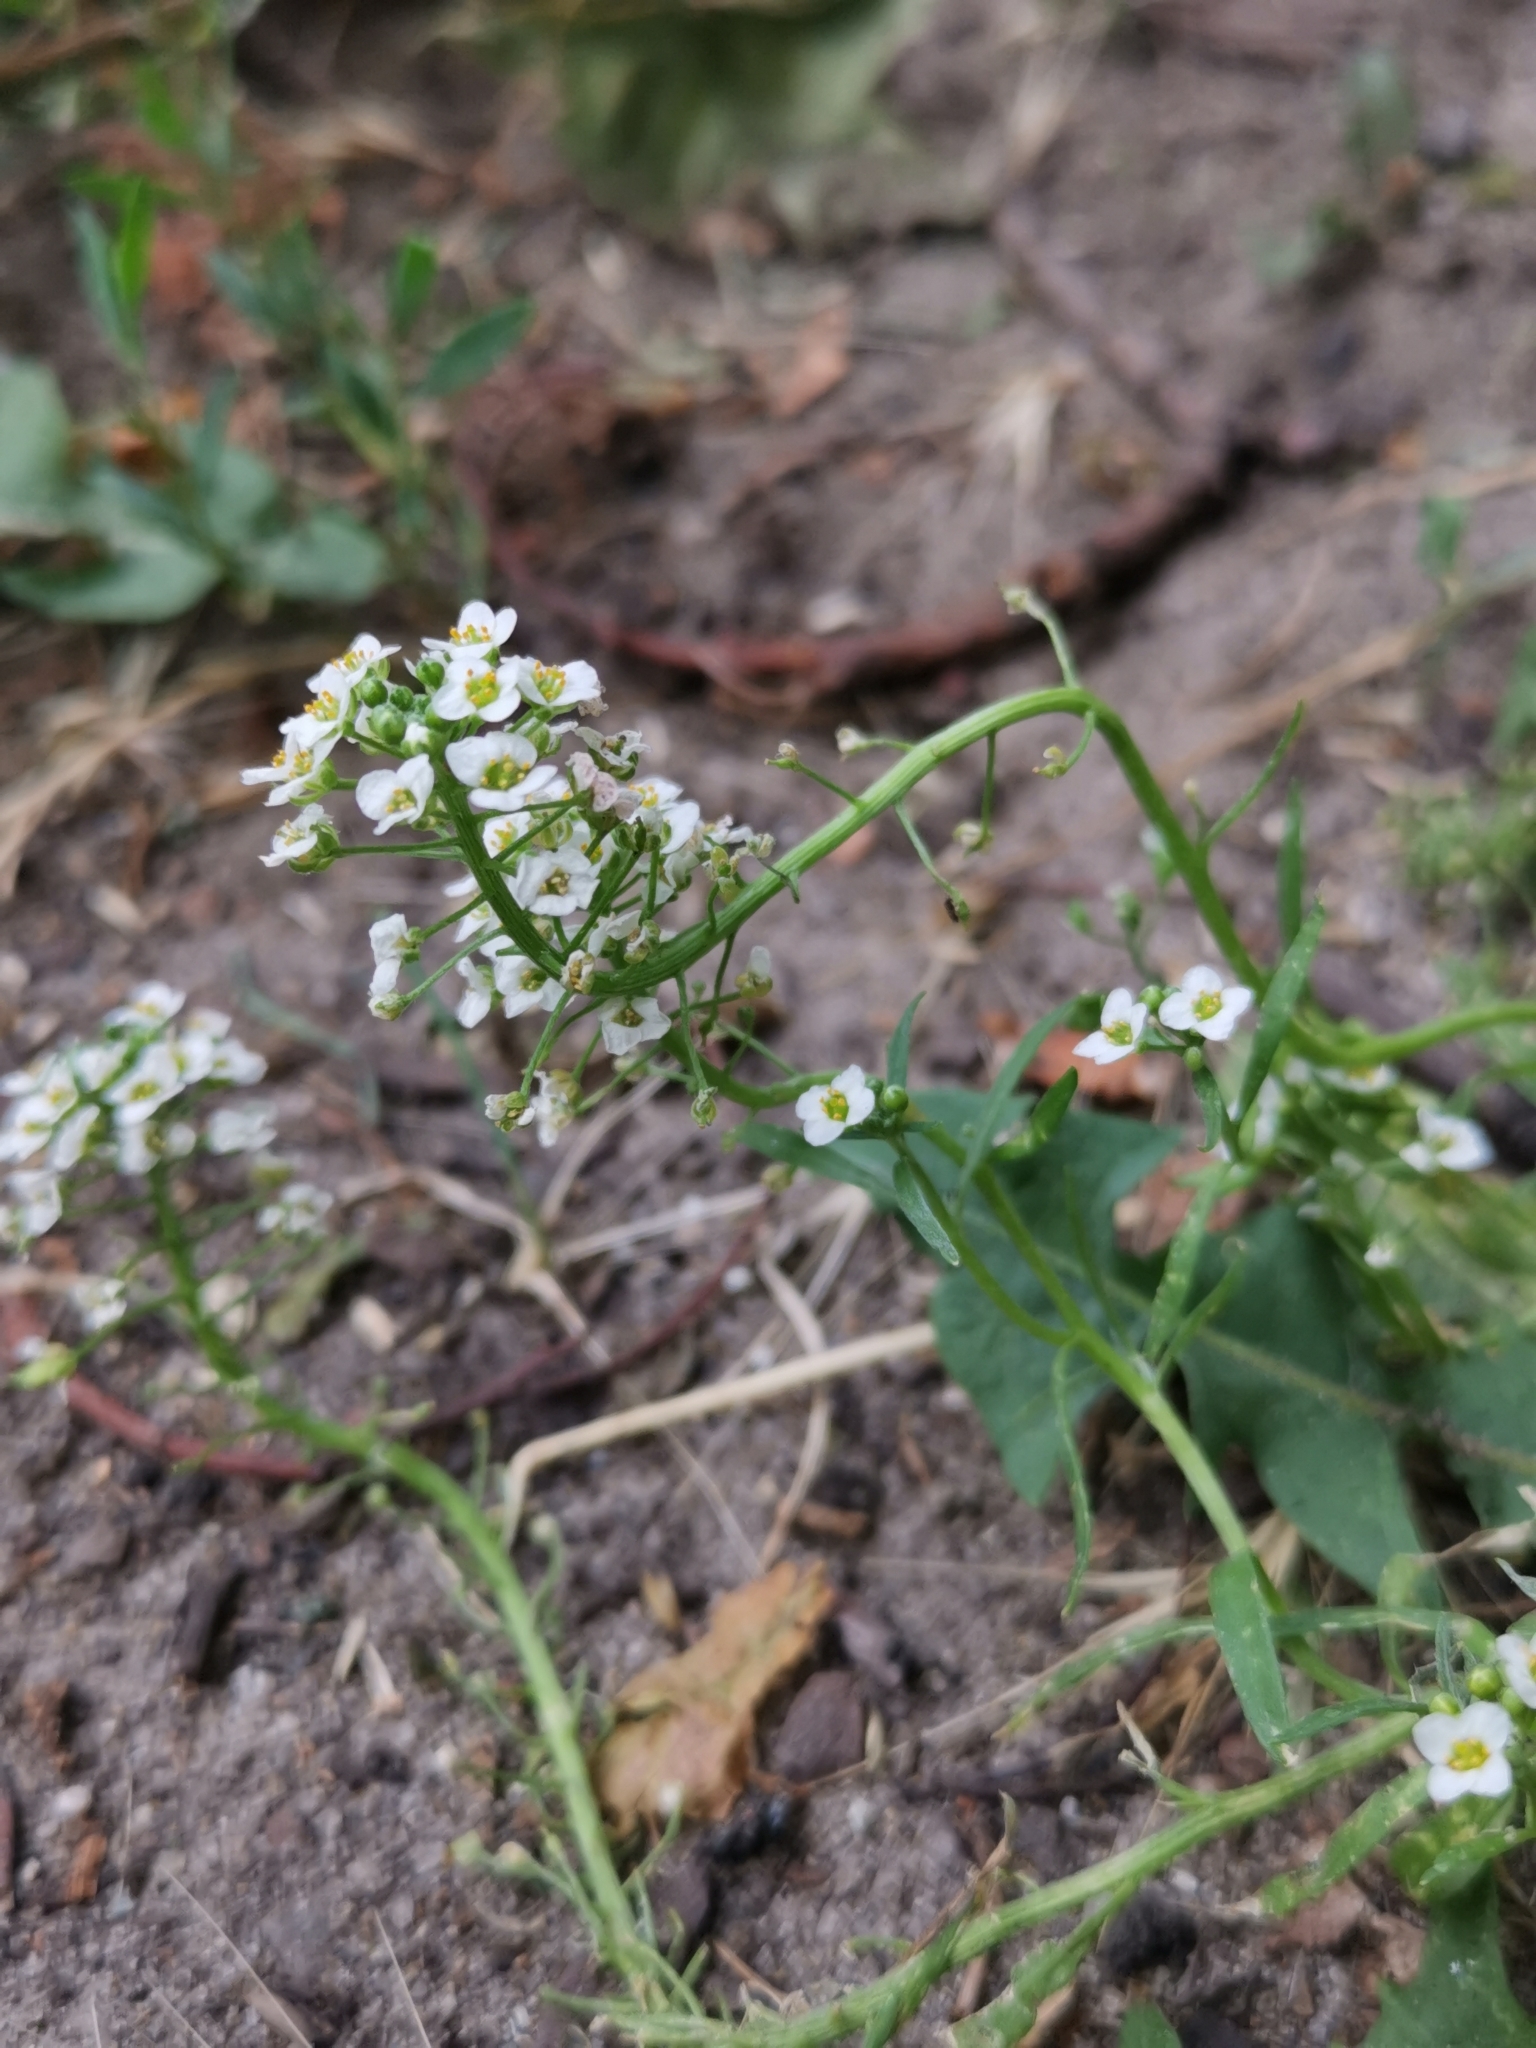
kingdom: Plantae
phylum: Tracheophyta
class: Magnoliopsida
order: Brassicales
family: Brassicaceae
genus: Lobularia
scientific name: Lobularia maritima
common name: Sweet alison
